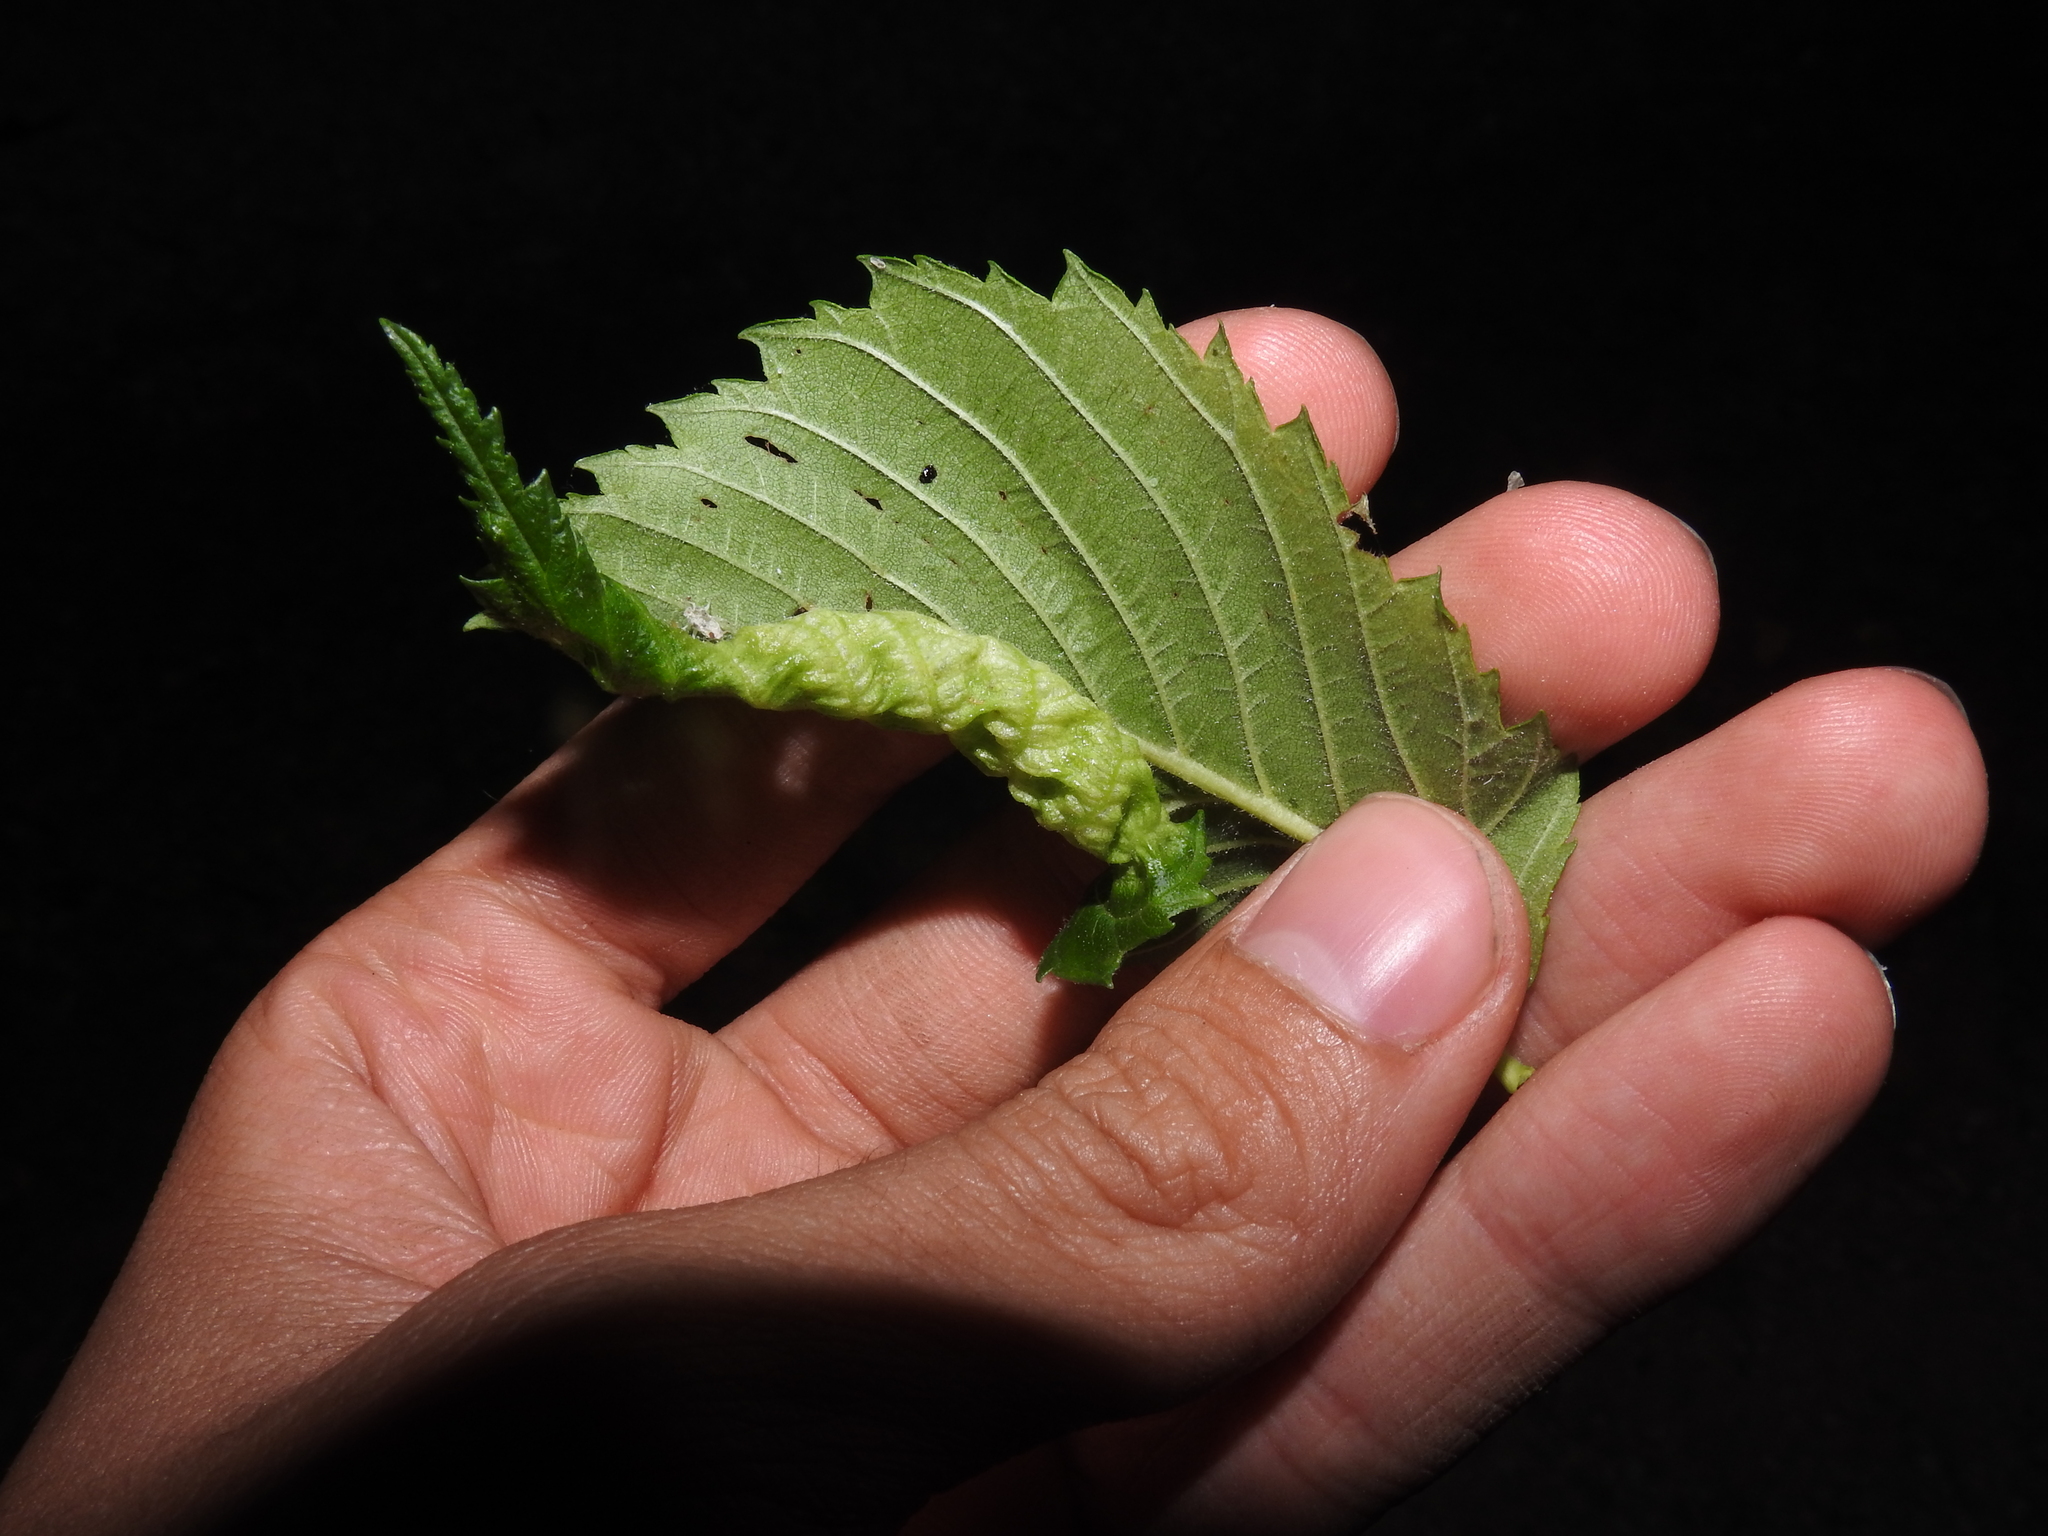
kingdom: Animalia
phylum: Arthropoda
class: Insecta
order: Hemiptera
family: Aphididae
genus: Eriosoma
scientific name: Eriosoma americanum
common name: Woolly elm aphid
